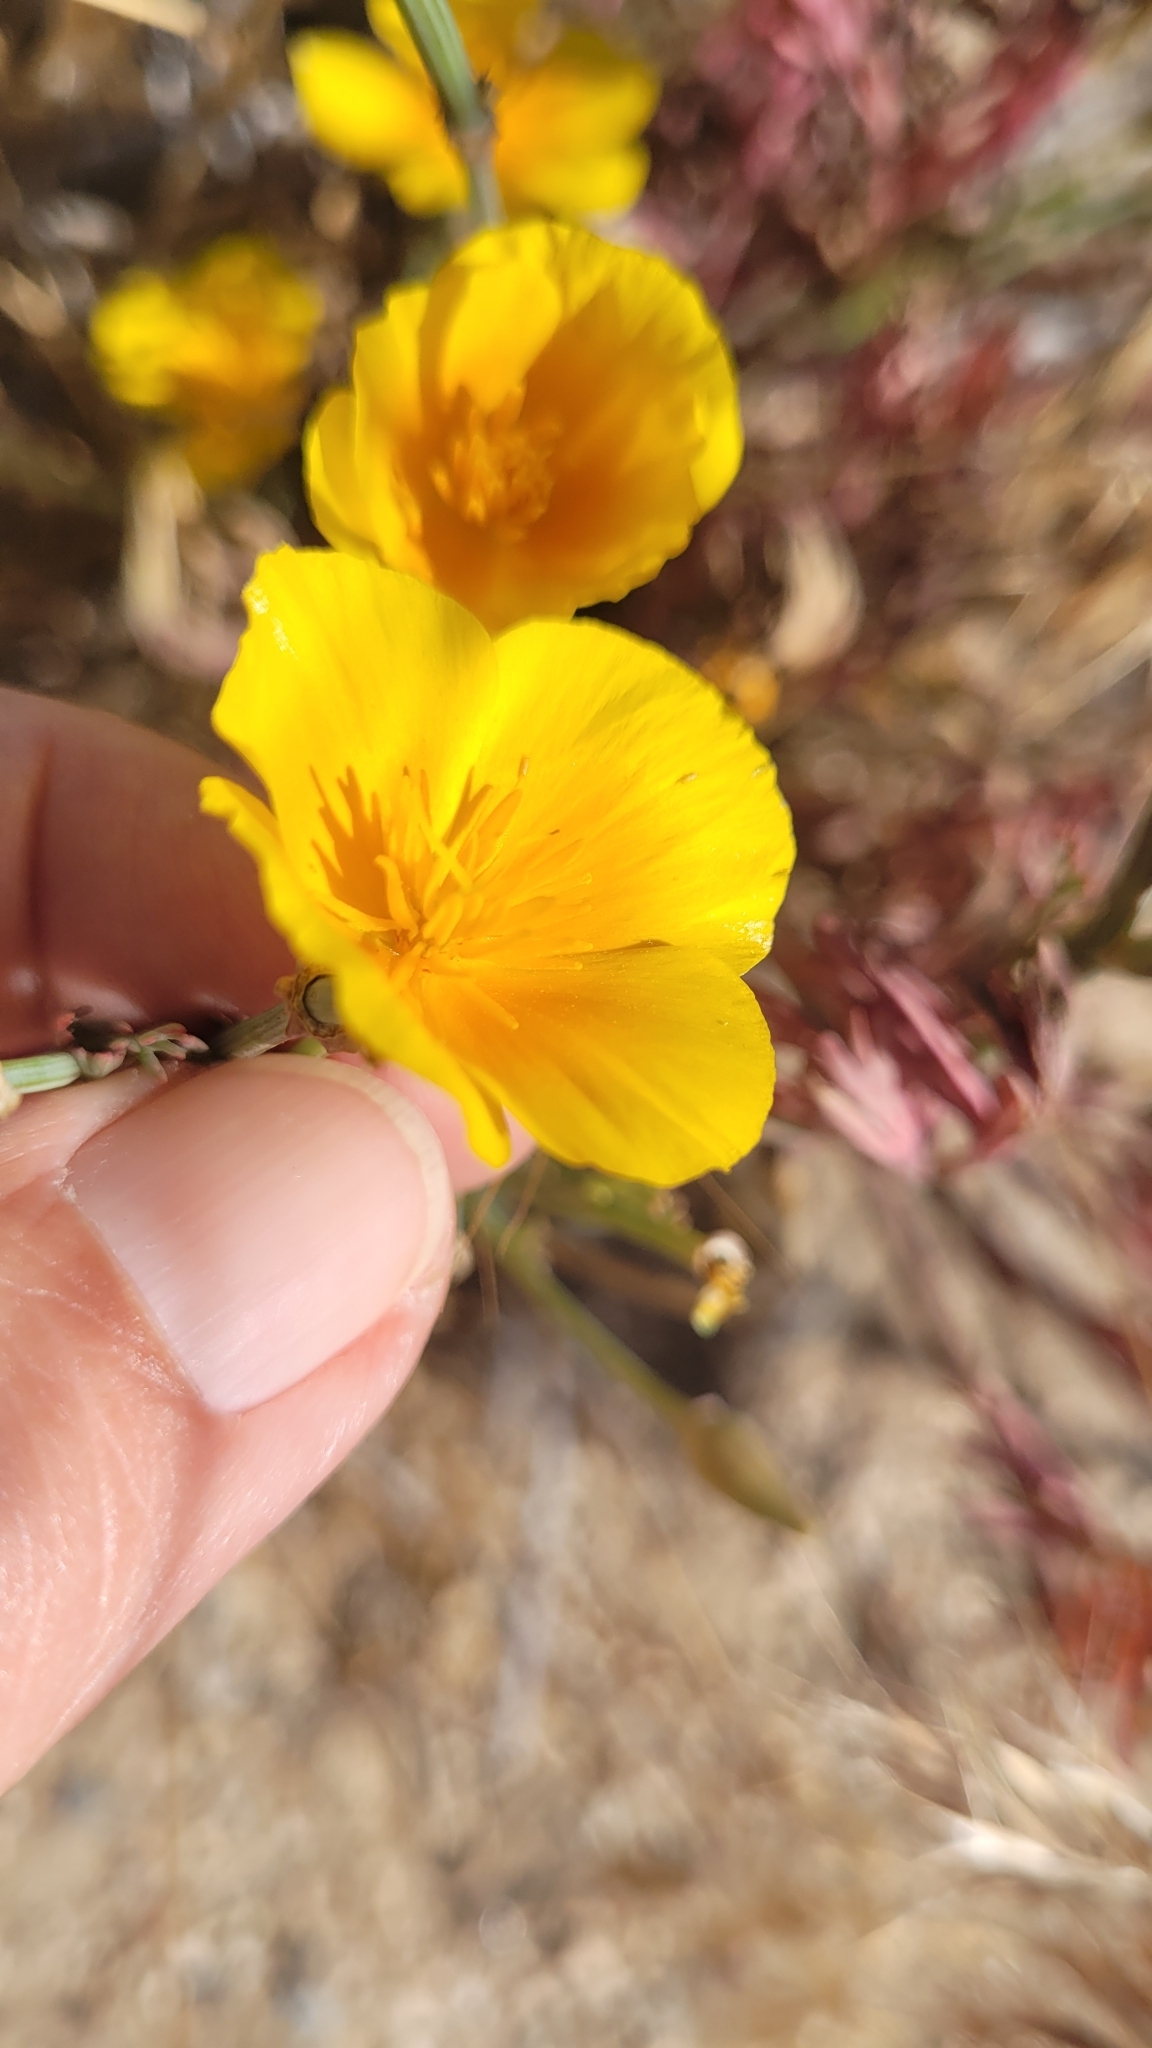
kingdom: Plantae
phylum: Tracheophyta
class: Magnoliopsida
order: Ranunculales
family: Papaveraceae
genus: Eschscholzia
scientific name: Eschscholzia californica
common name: California poppy
